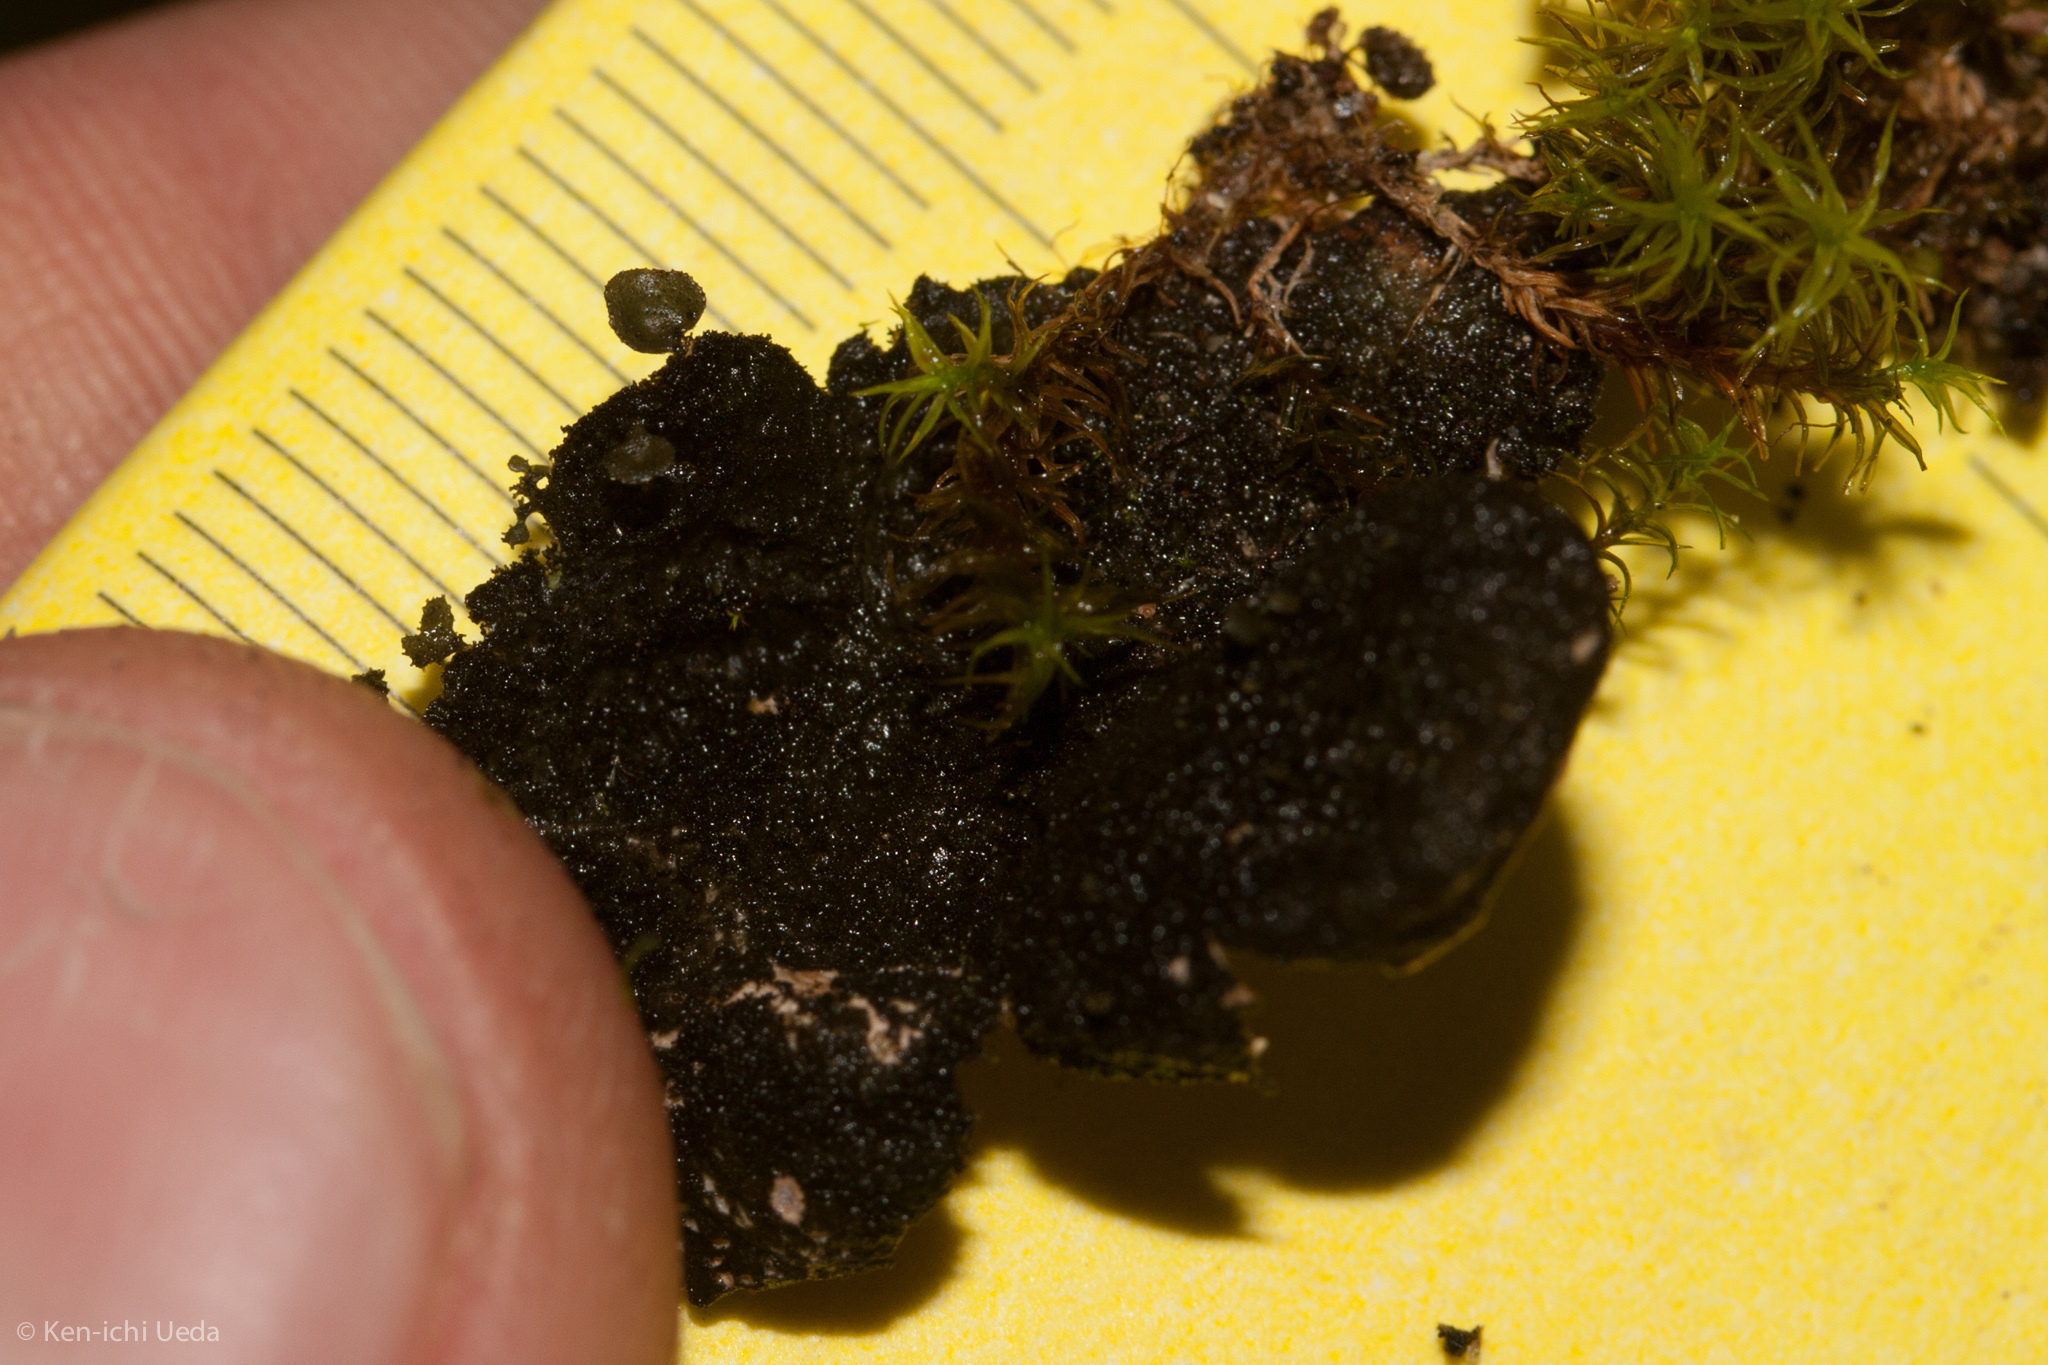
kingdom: Fungi
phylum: Ascomycota
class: Lecanoromycetes
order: Peltigerales
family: Lobariaceae
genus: Sticta
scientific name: Sticta fuliginosa
